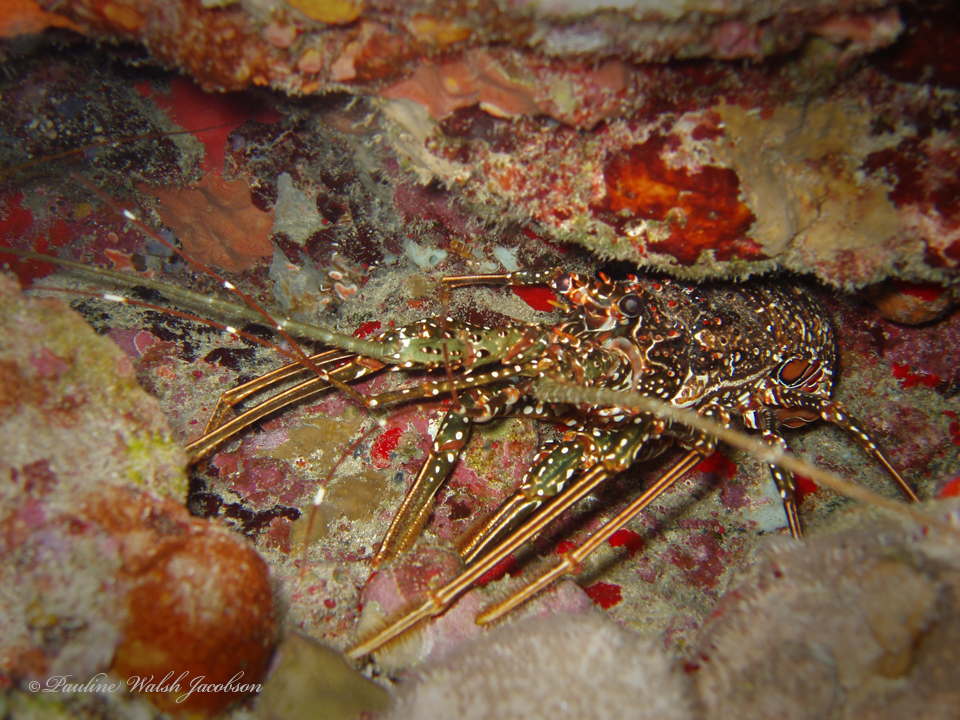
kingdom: Animalia
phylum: Arthropoda
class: Malacostraca
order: Decapoda
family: Palinuridae
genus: Panulirus
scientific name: Panulirus guttatus
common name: Spotted spiny lobster
